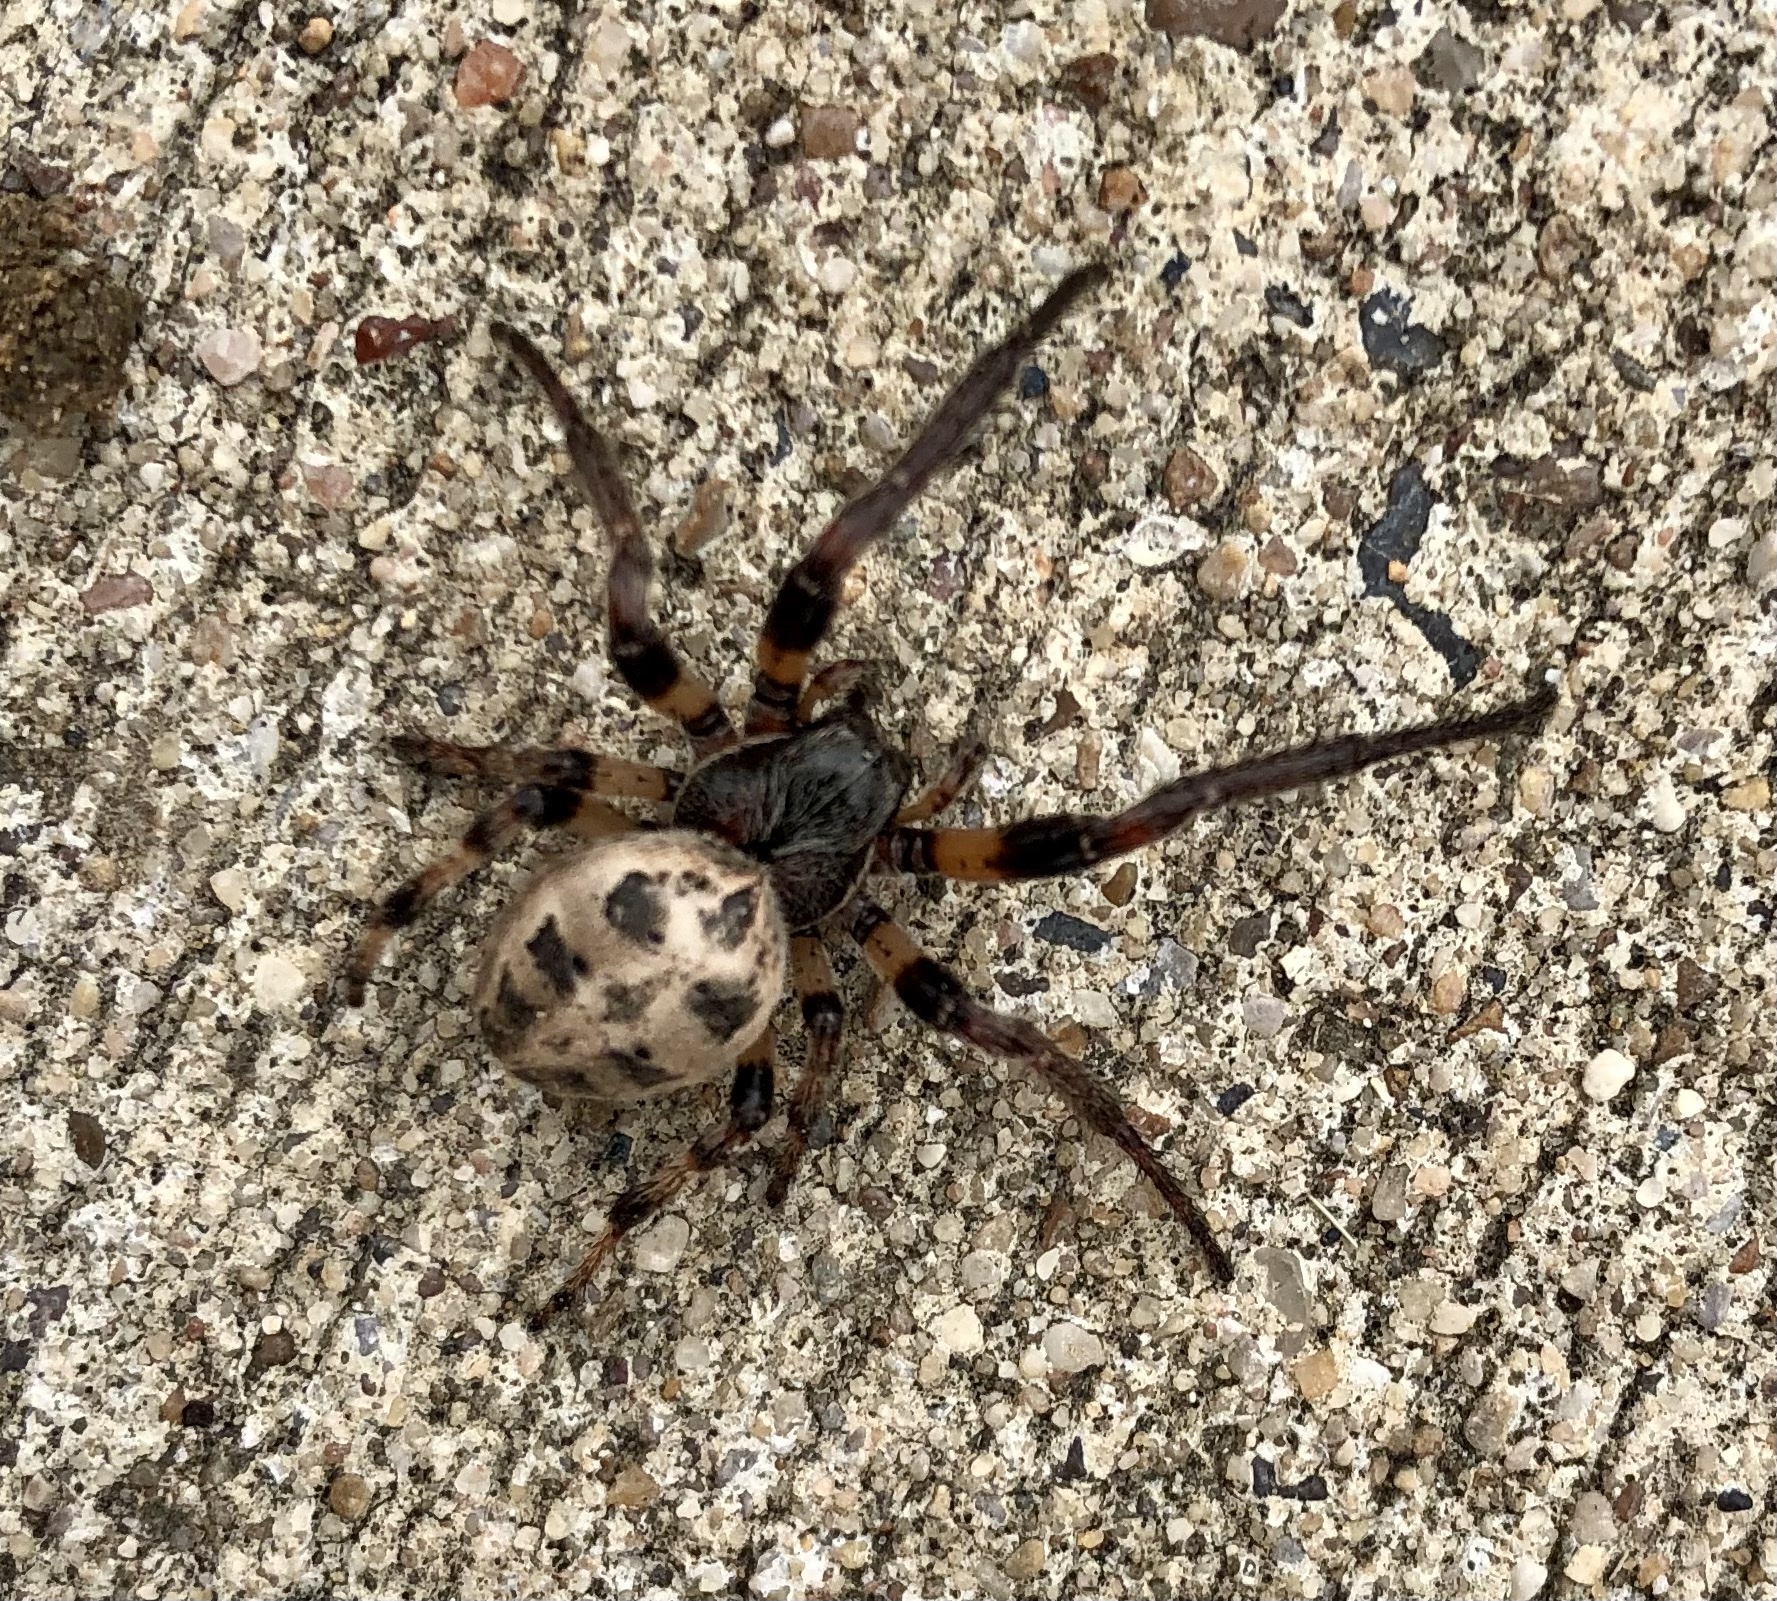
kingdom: Animalia
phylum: Arthropoda
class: Arachnida
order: Araneae
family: Araneidae
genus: Larinioides
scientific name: Larinioides cornutus
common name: Furrow orbweaver
